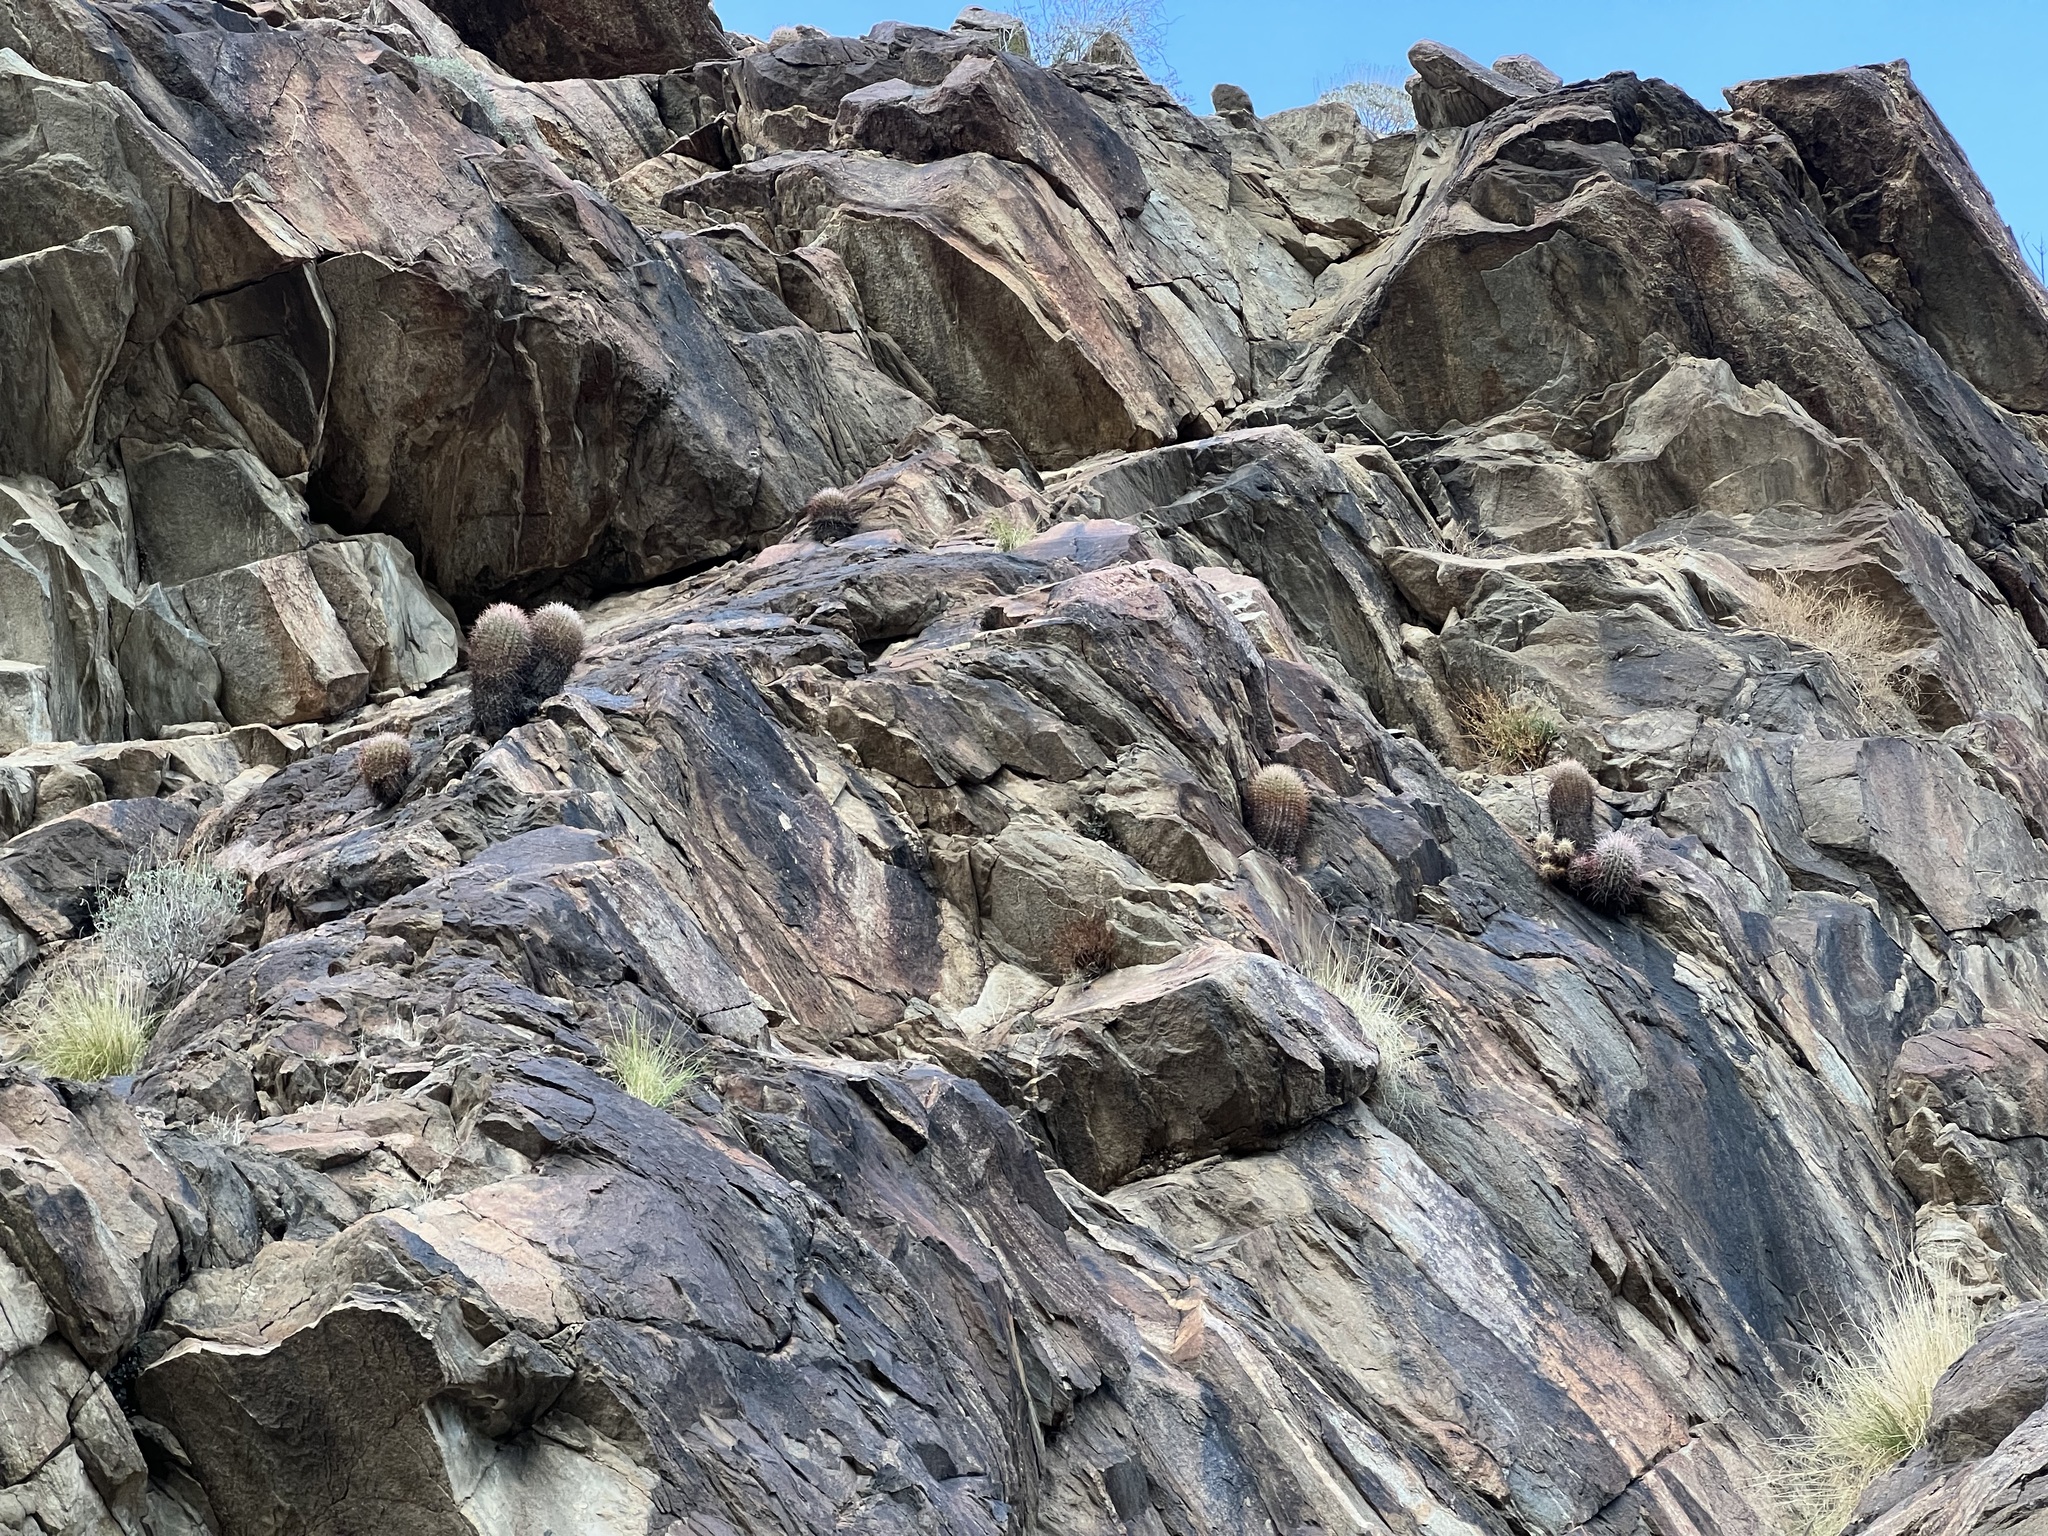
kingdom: Plantae
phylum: Tracheophyta
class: Magnoliopsida
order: Caryophyllales
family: Cactaceae
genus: Ferocactus
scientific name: Ferocactus cylindraceus
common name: California barrel cactus
